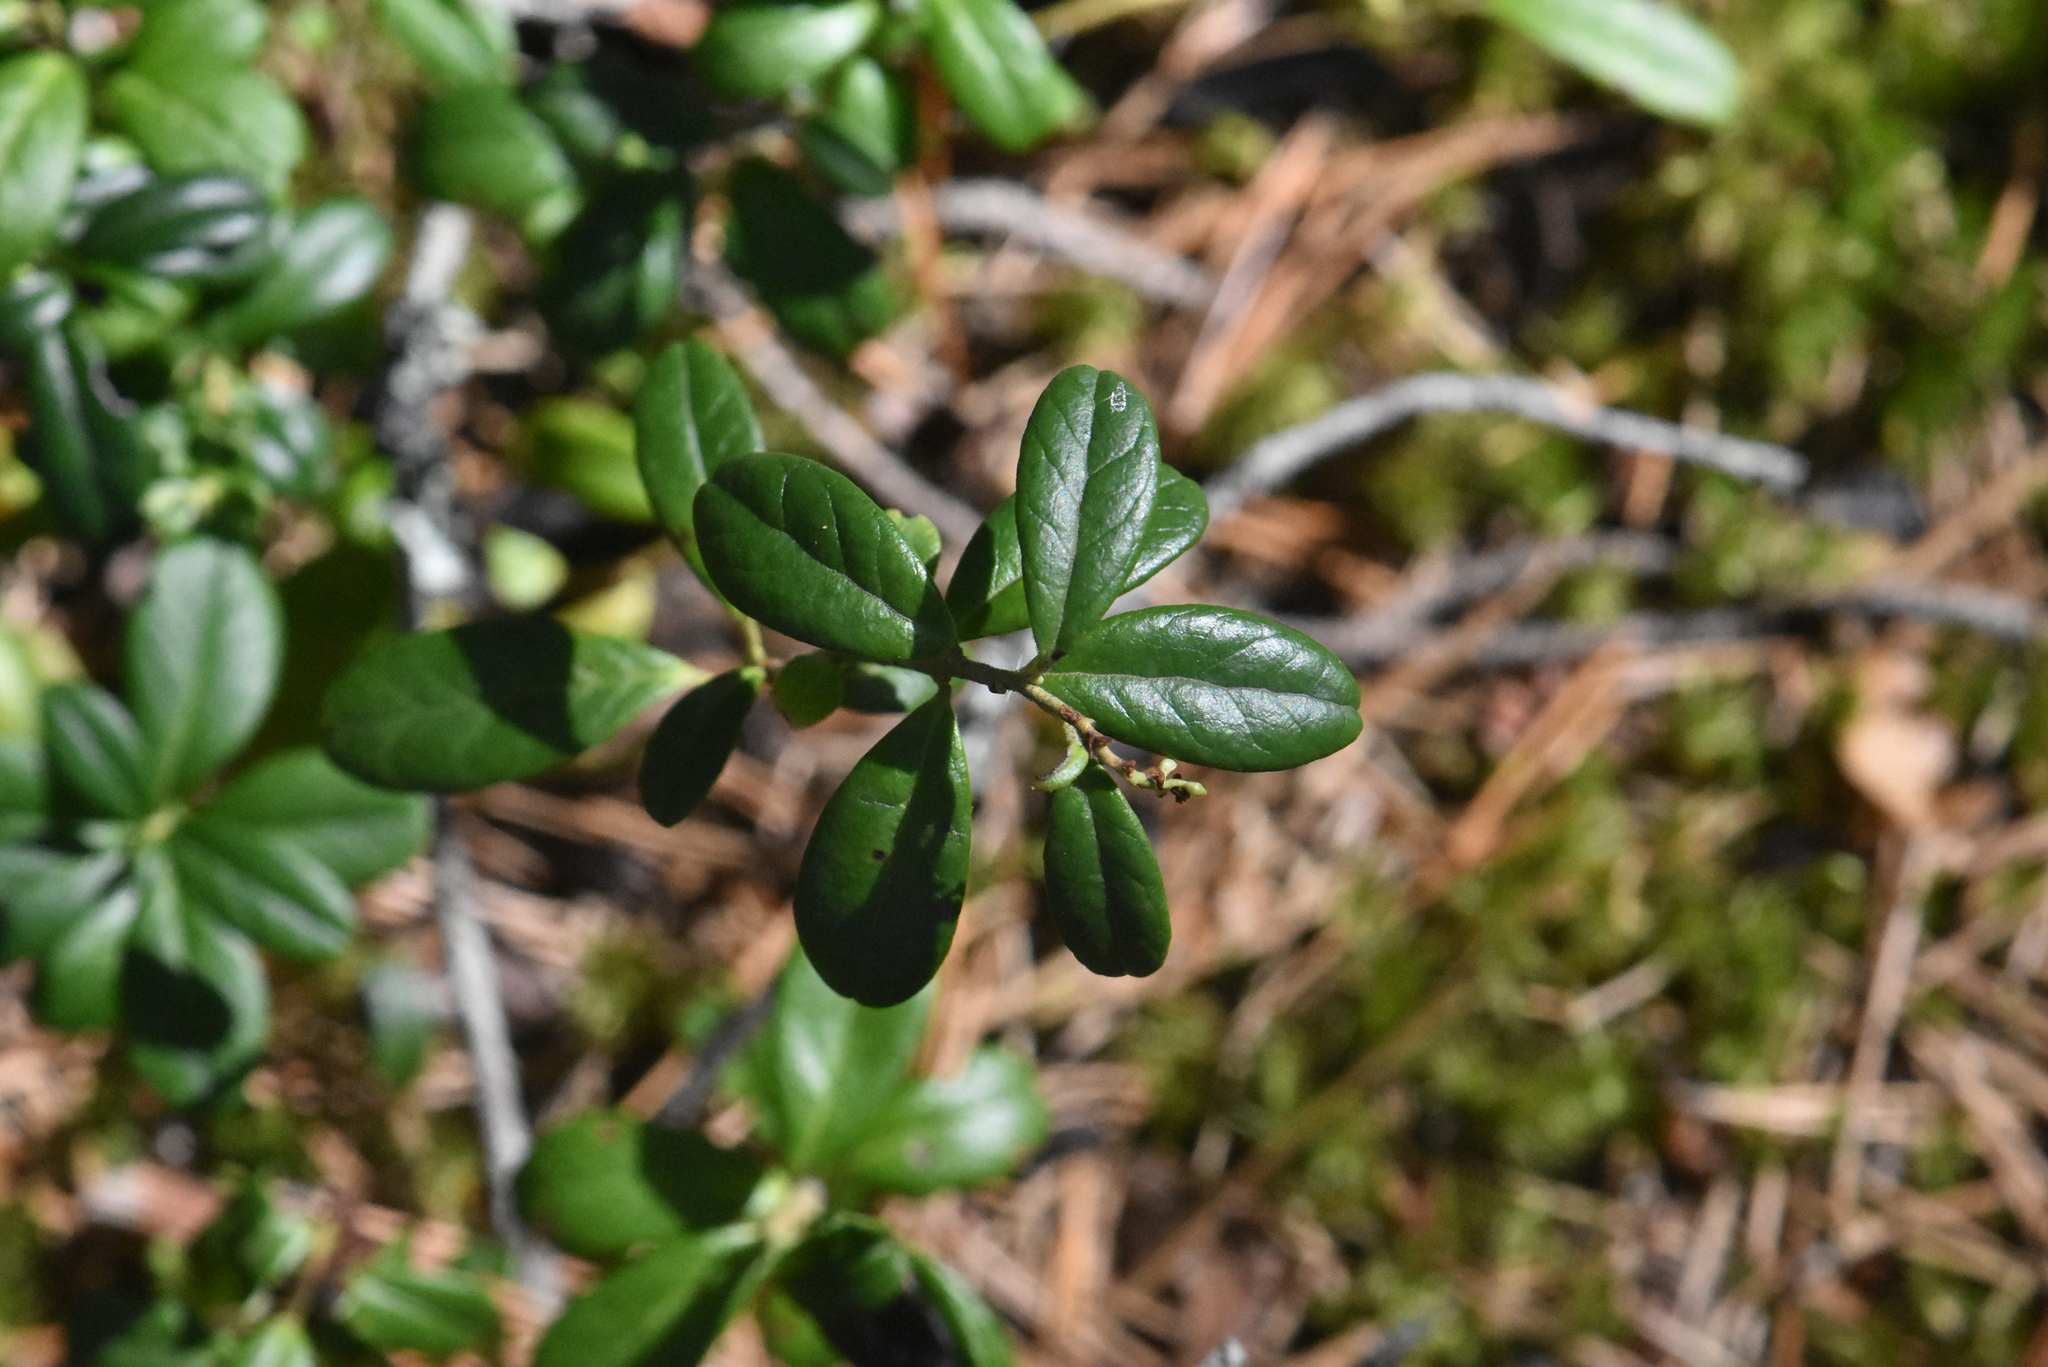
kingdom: Plantae
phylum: Tracheophyta
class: Magnoliopsida
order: Ericales
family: Ericaceae
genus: Vaccinium
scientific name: Vaccinium vitis-idaea
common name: Cowberry
